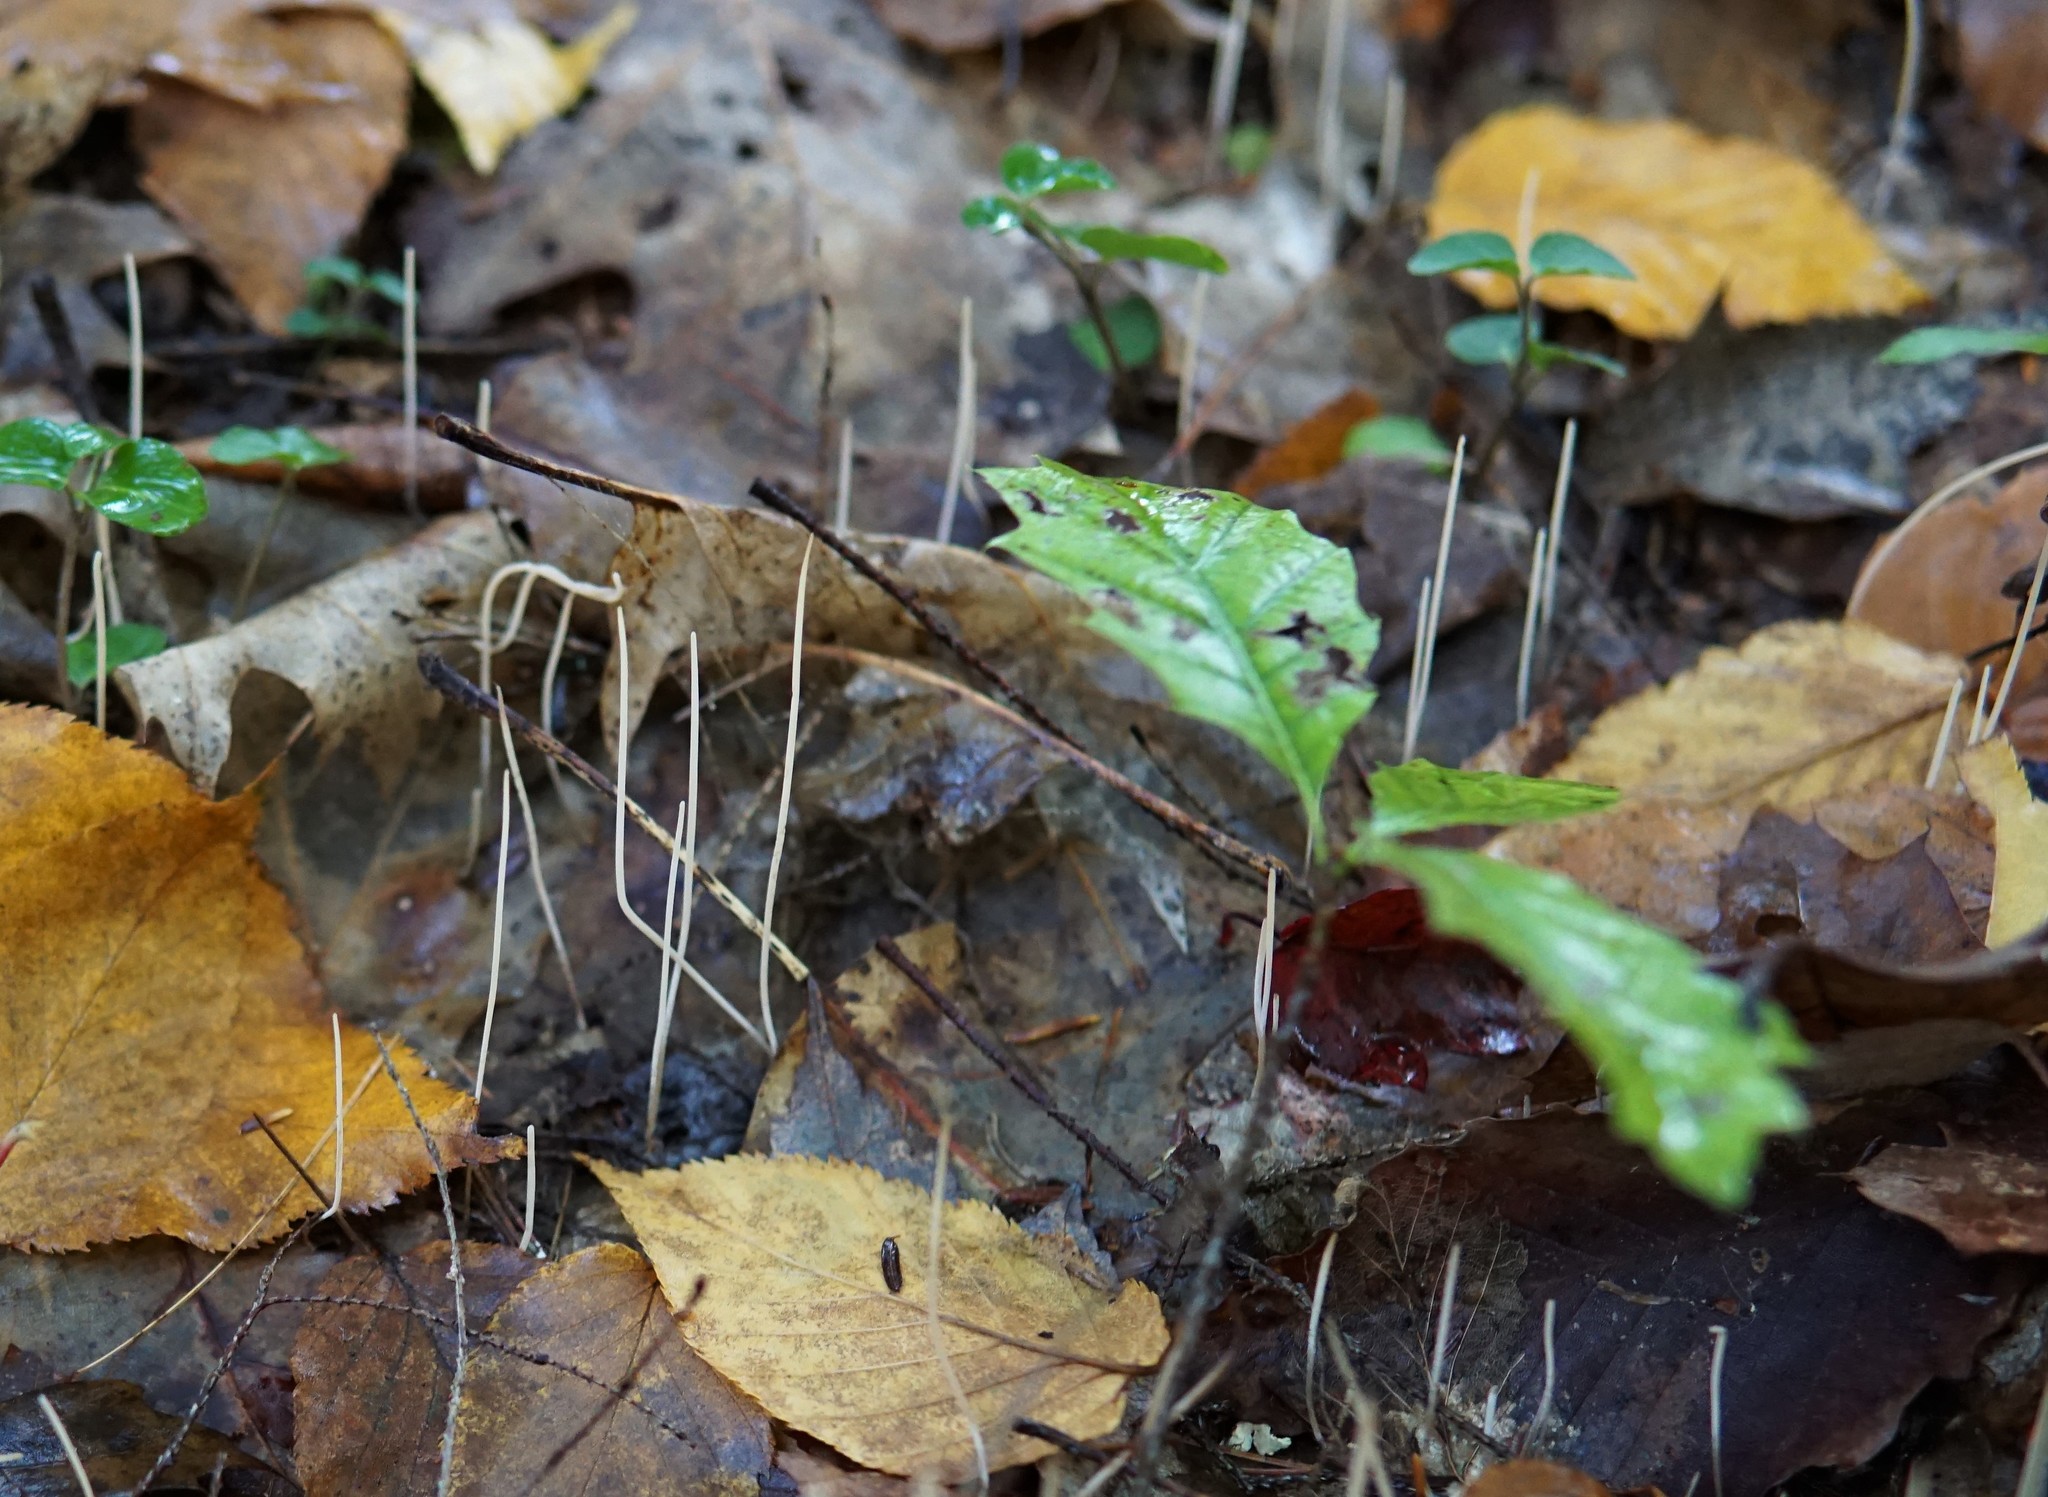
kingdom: Fungi
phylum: Basidiomycota
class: Agaricomycetes
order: Agaricales
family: Typhulaceae
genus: Typhula
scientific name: Typhula juncea
